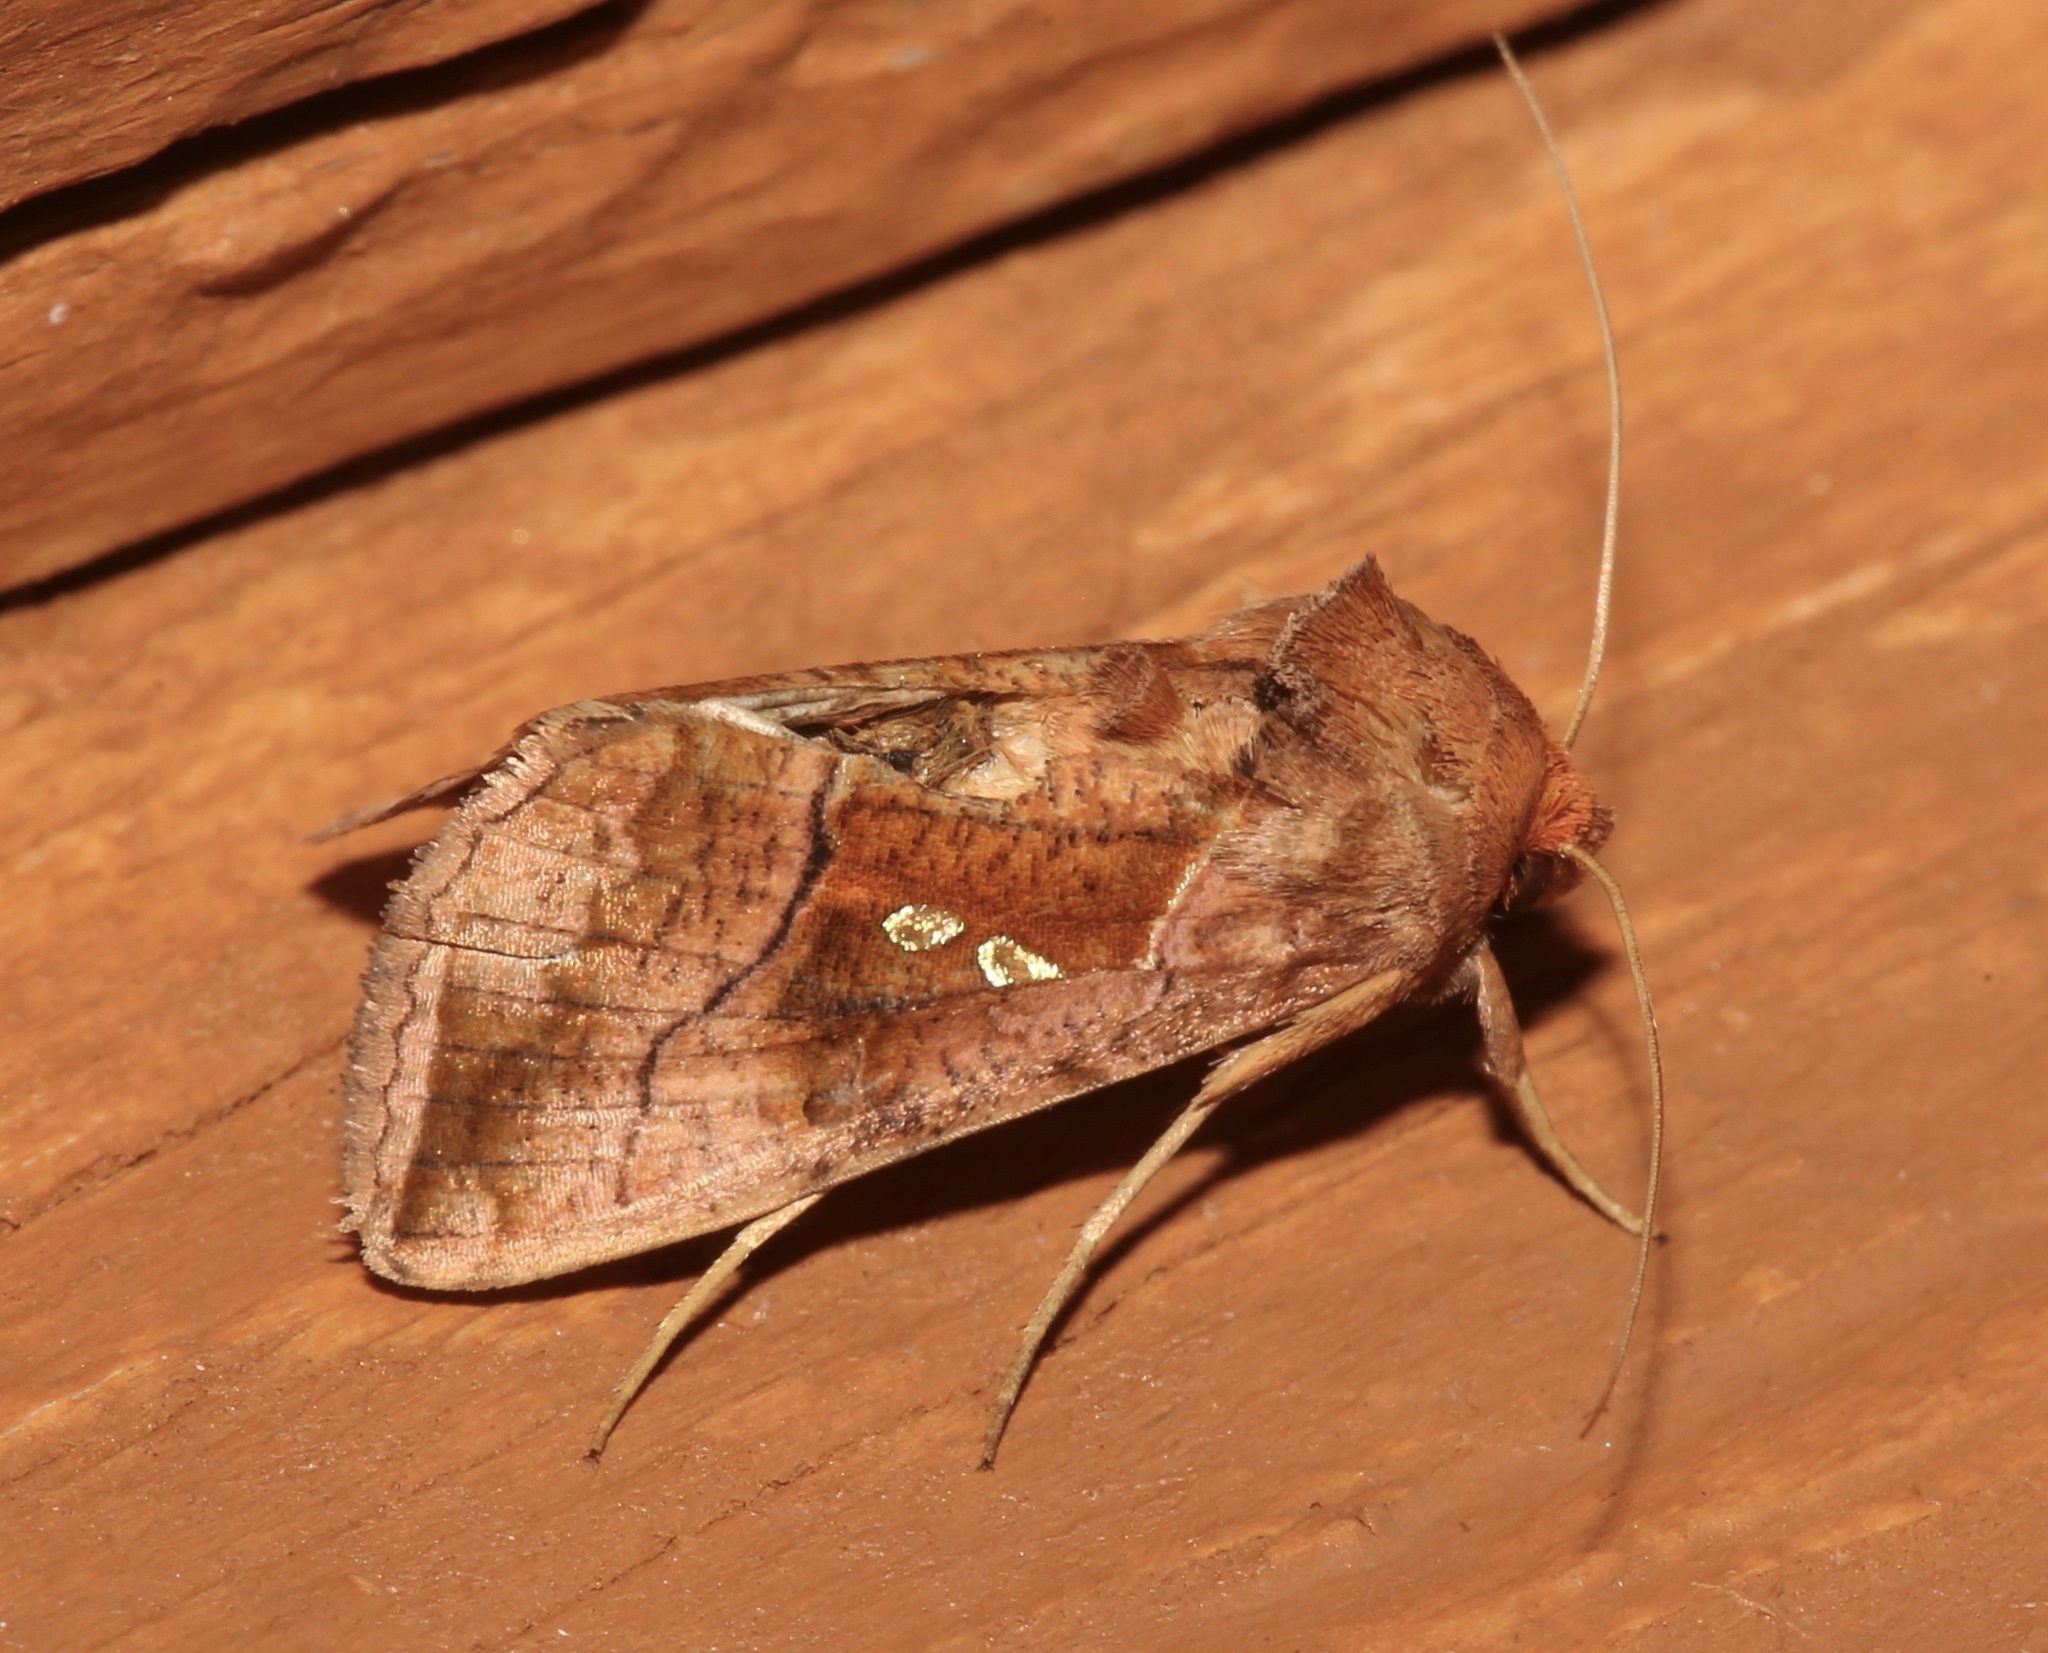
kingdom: Animalia
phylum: Arthropoda
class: Insecta
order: Lepidoptera
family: Noctuidae
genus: Enigmogramma
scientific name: Enigmogramma basigera
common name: Pink-washed looper moth
